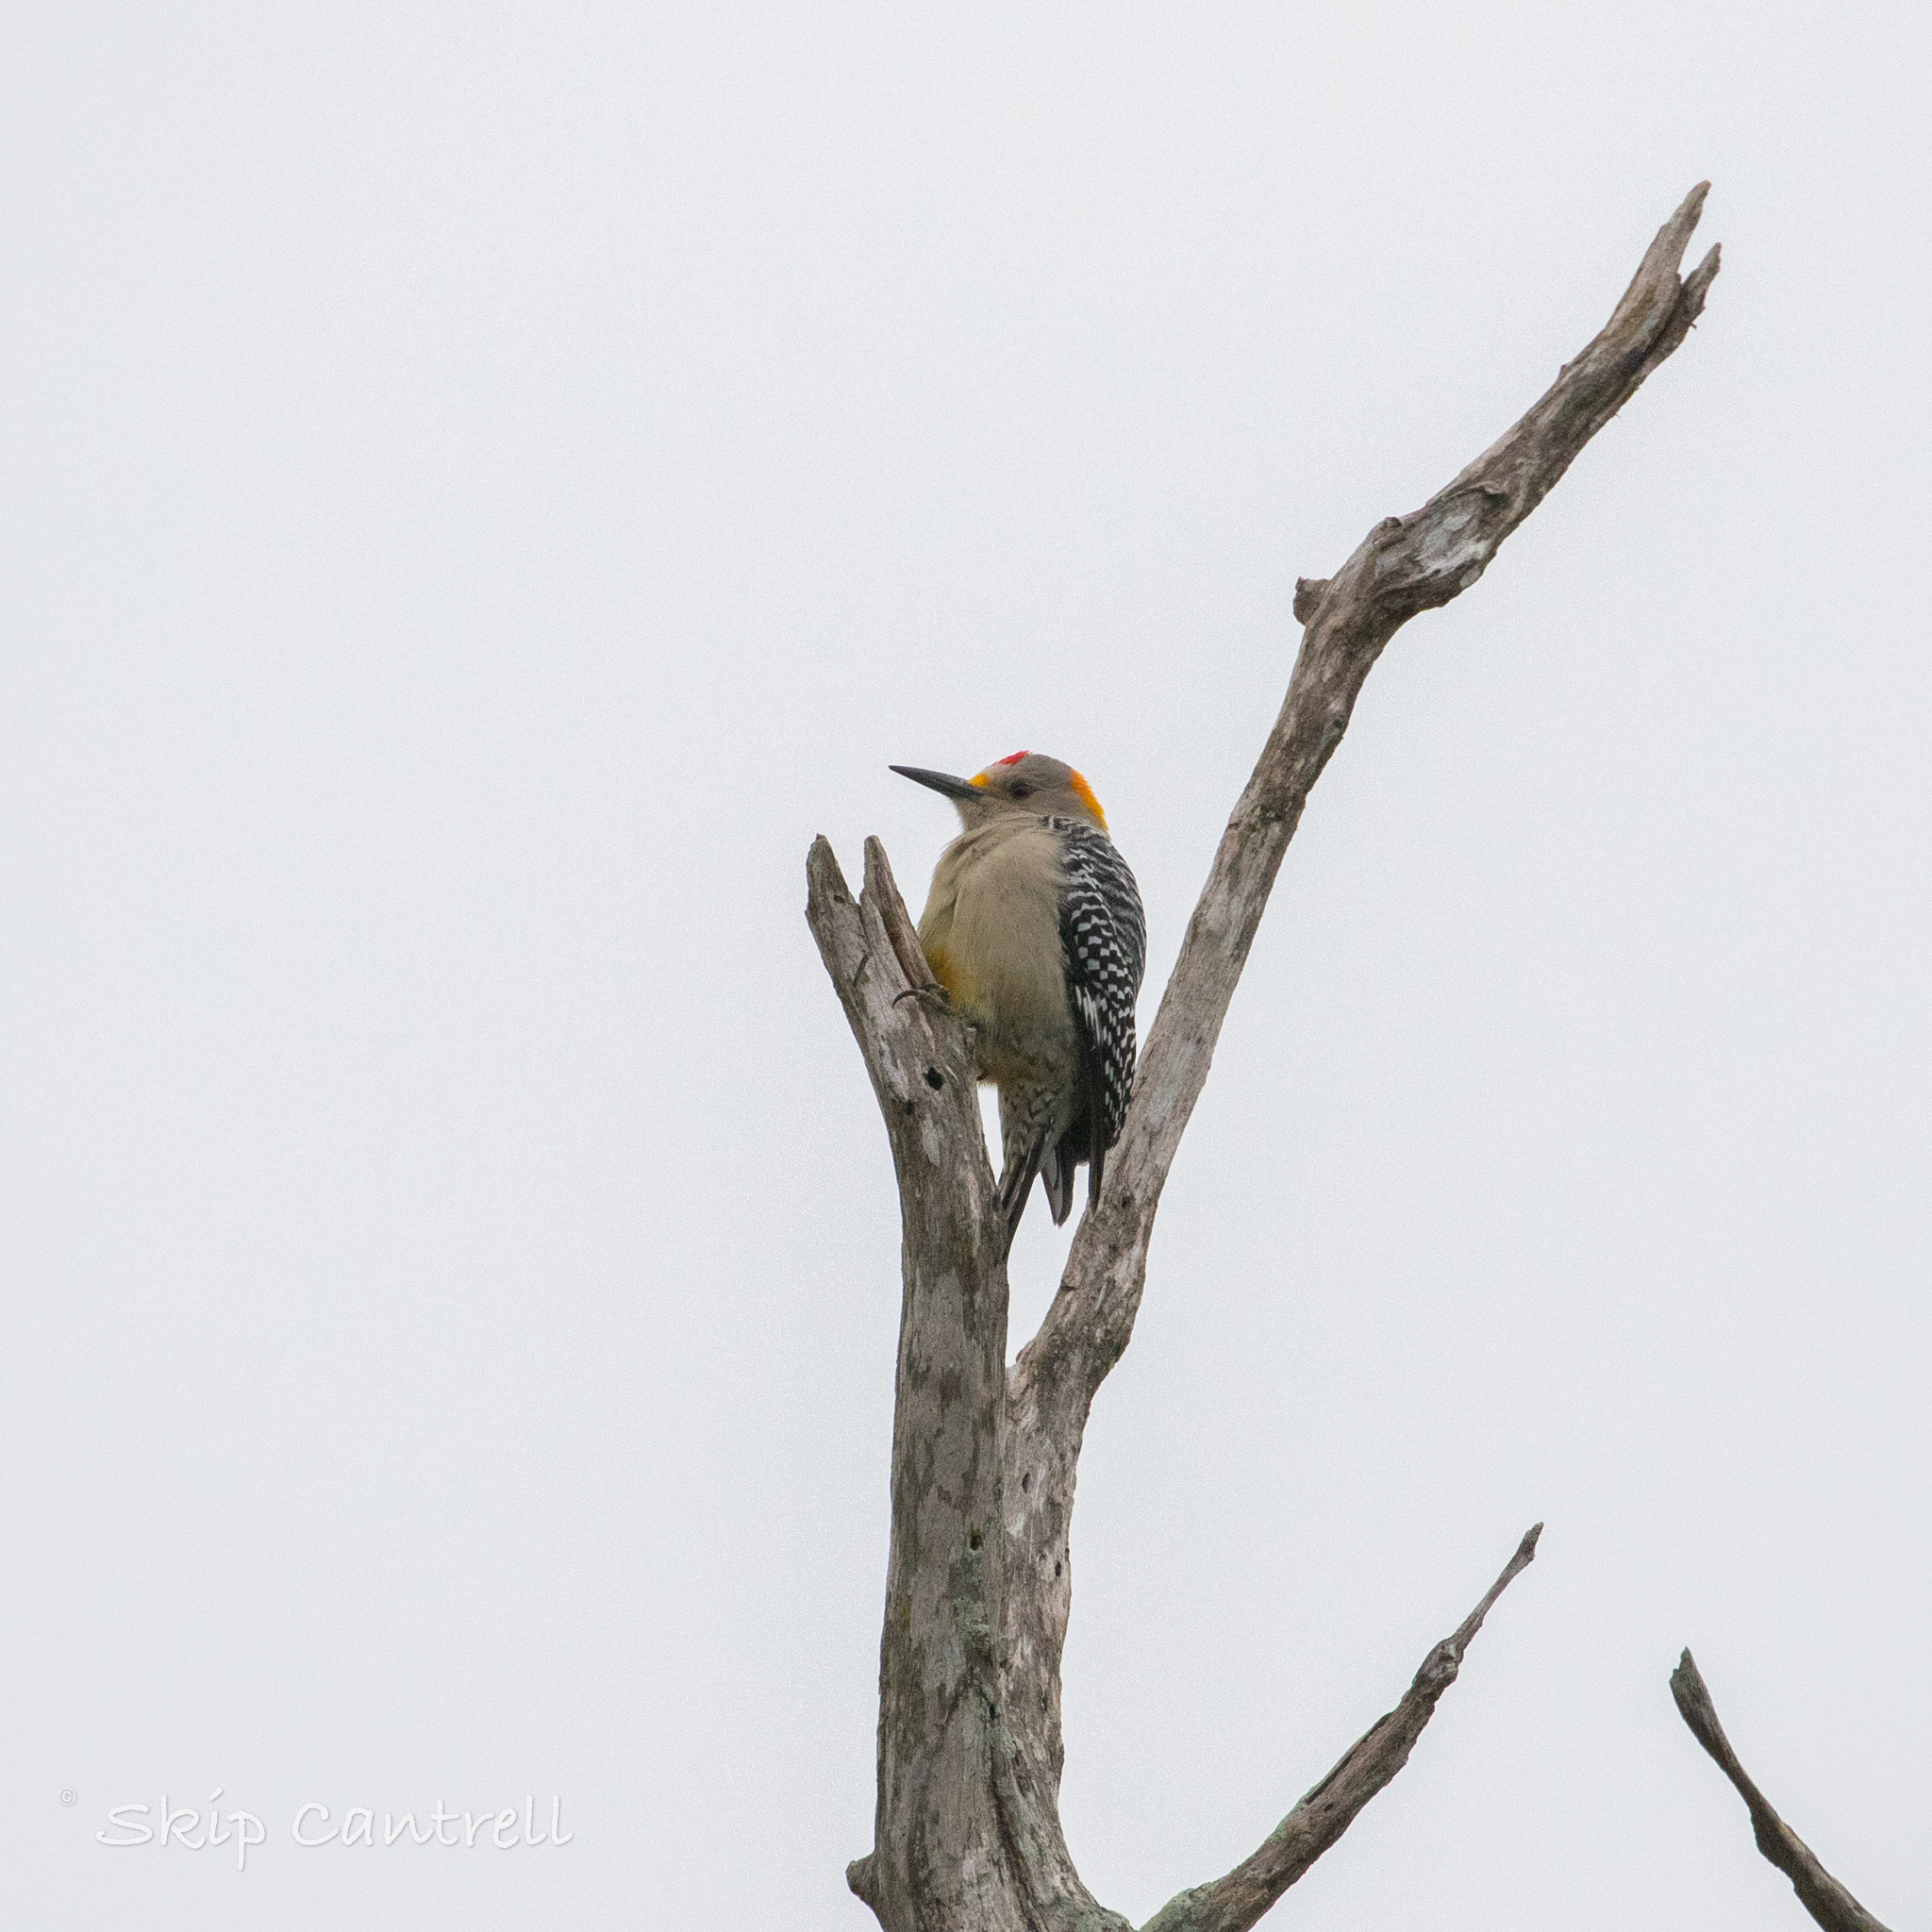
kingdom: Animalia
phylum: Chordata
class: Aves
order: Piciformes
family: Picidae
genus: Melanerpes
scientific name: Melanerpes aurifrons
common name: Golden-fronted woodpecker
